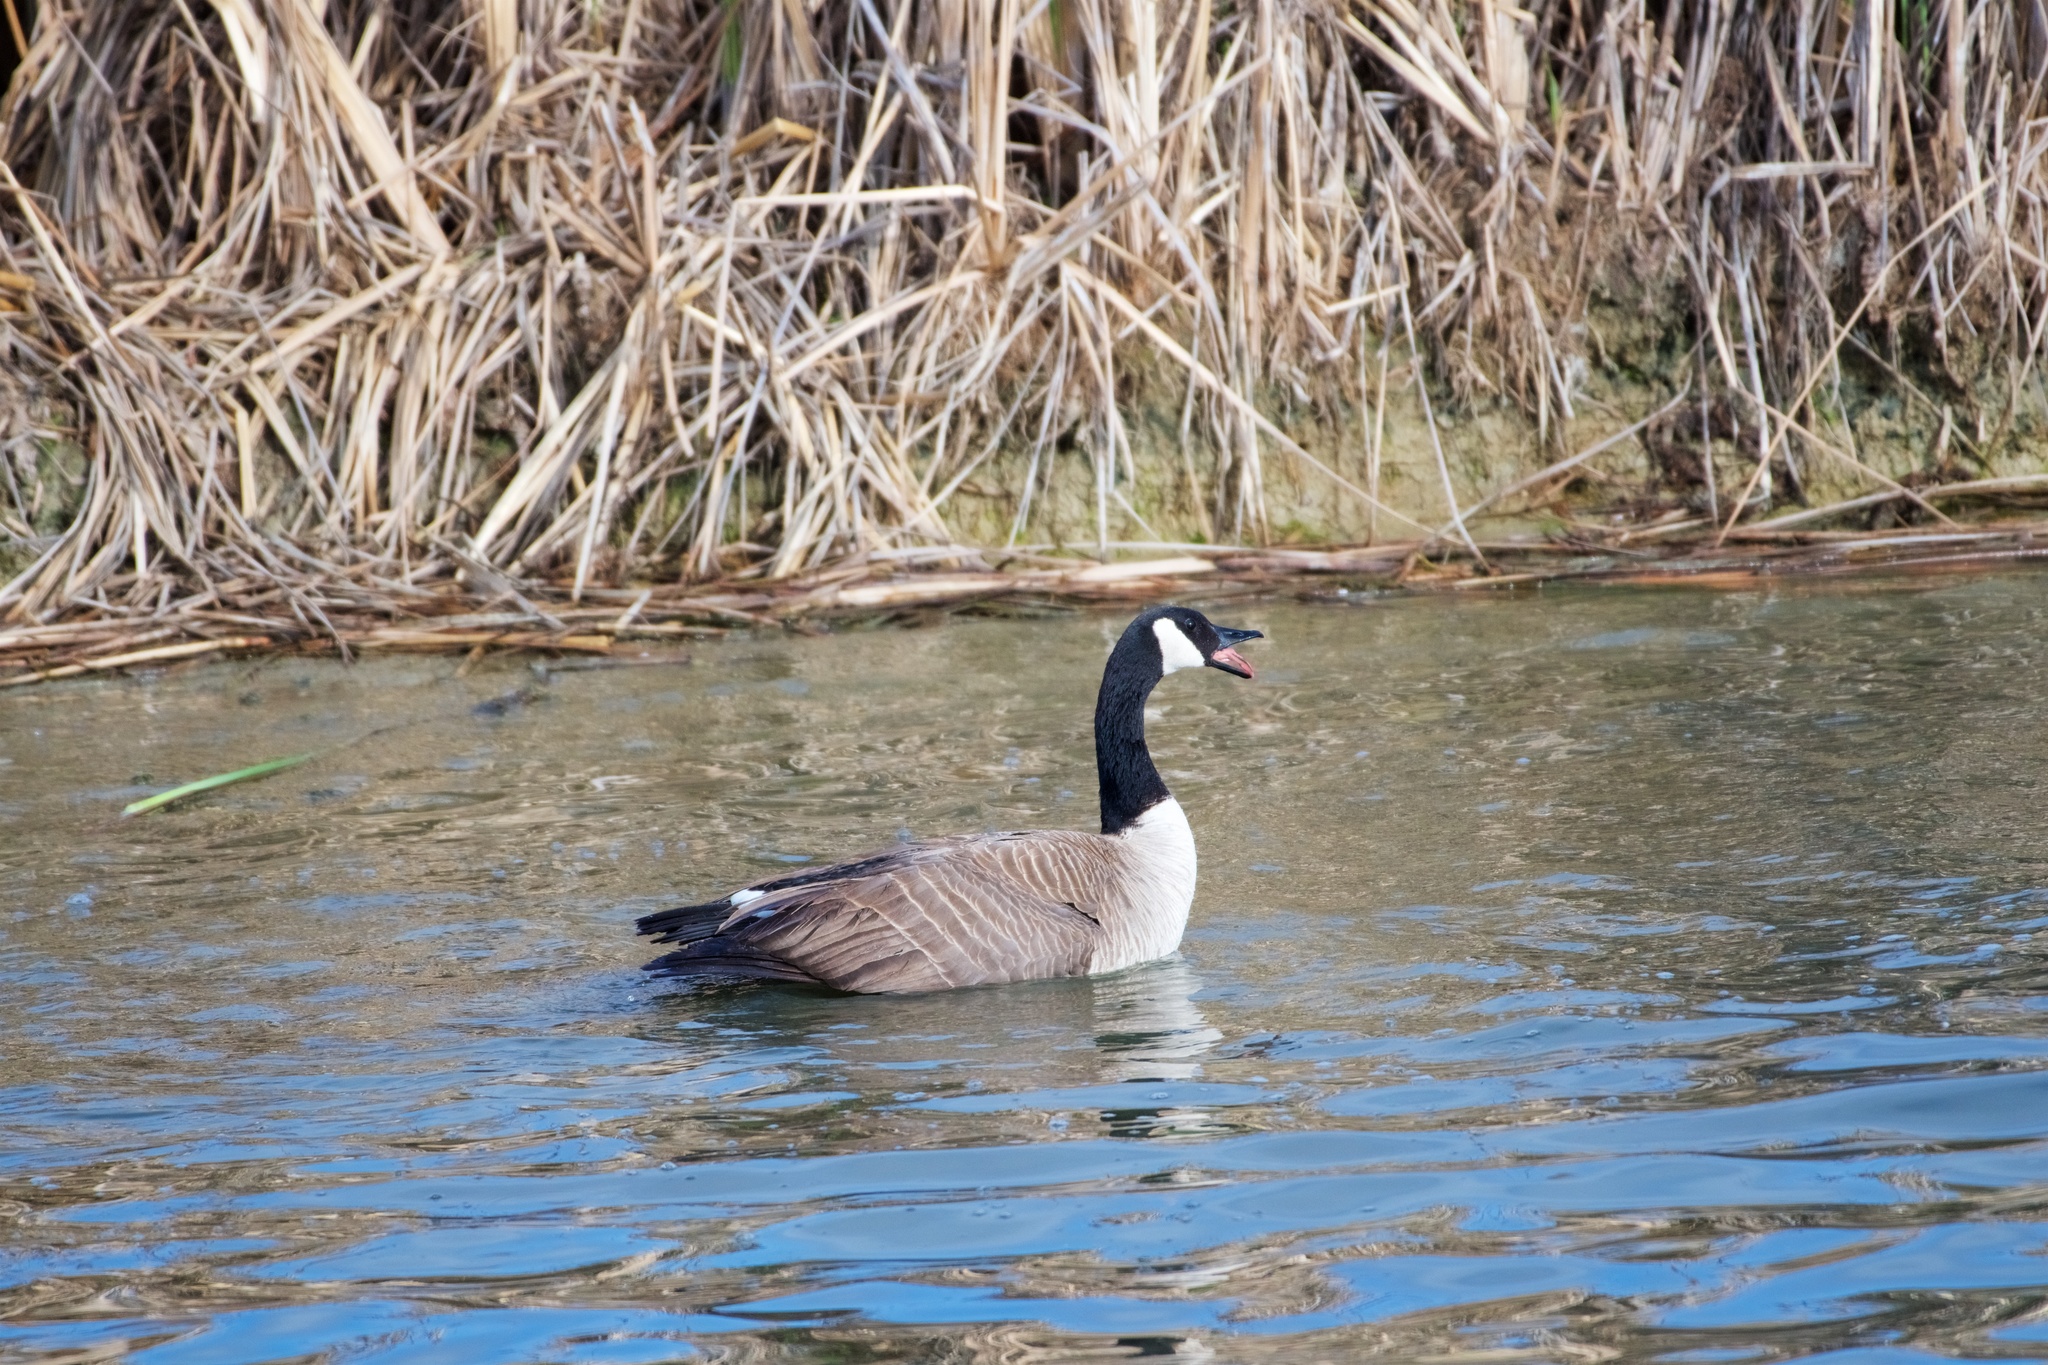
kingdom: Animalia
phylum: Chordata
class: Aves
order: Anseriformes
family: Anatidae
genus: Branta
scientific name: Branta canadensis
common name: Canada goose
